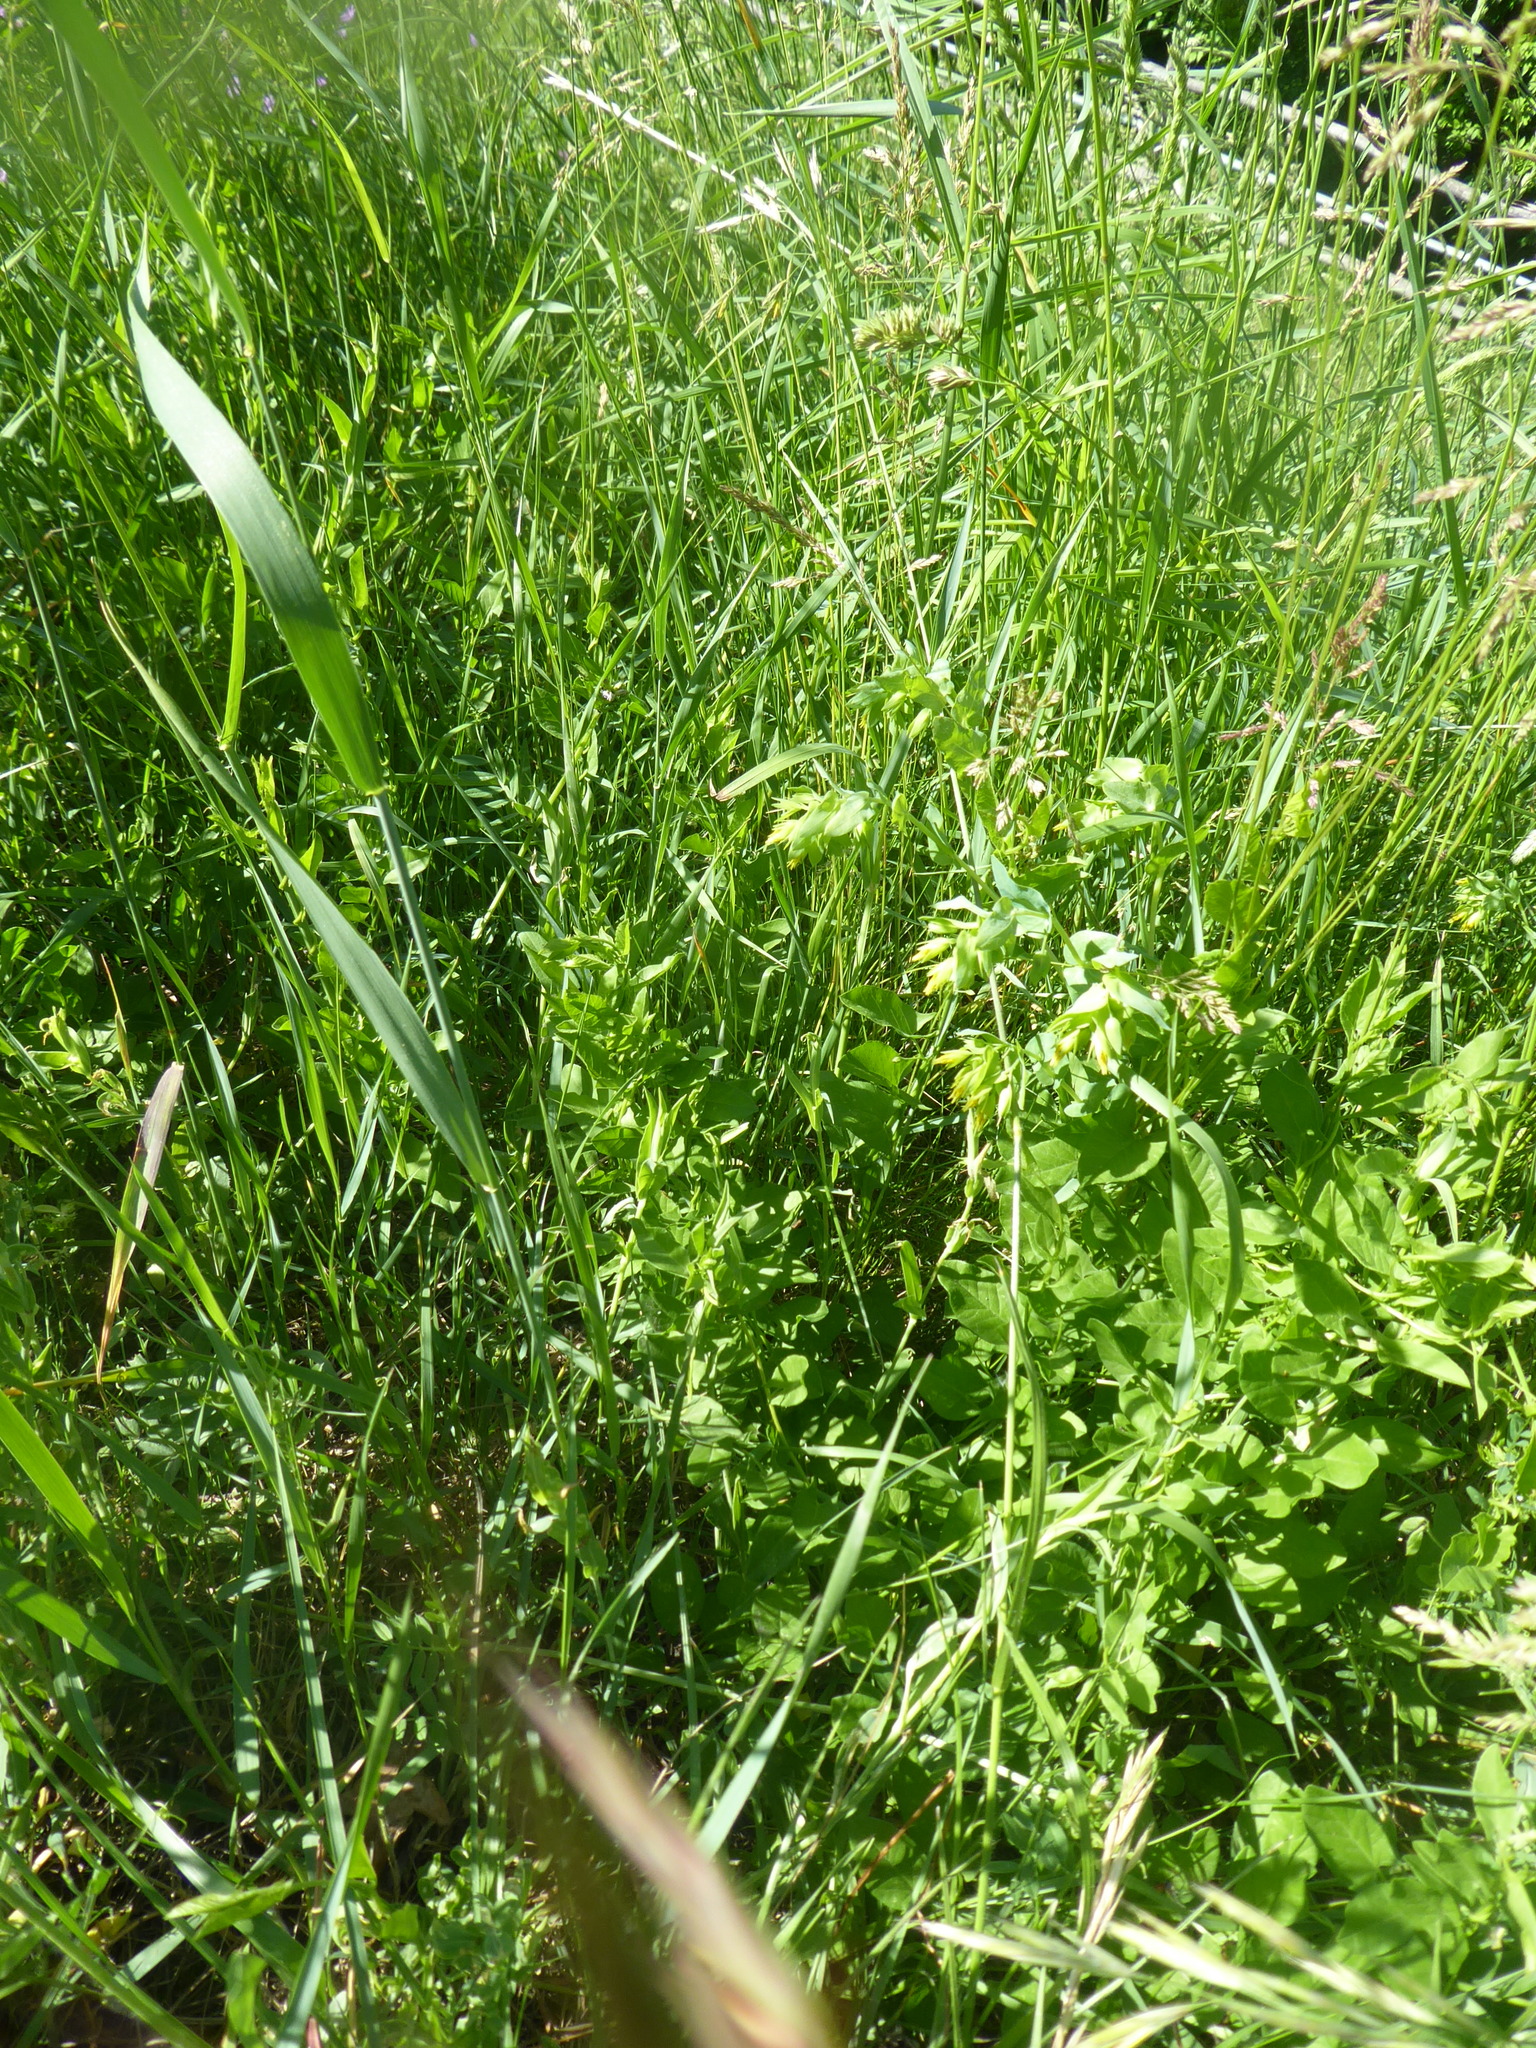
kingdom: Plantae
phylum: Tracheophyta
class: Magnoliopsida
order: Boraginales
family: Boraginaceae
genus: Cerinthe
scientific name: Cerinthe minor
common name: Lesser honeywort
